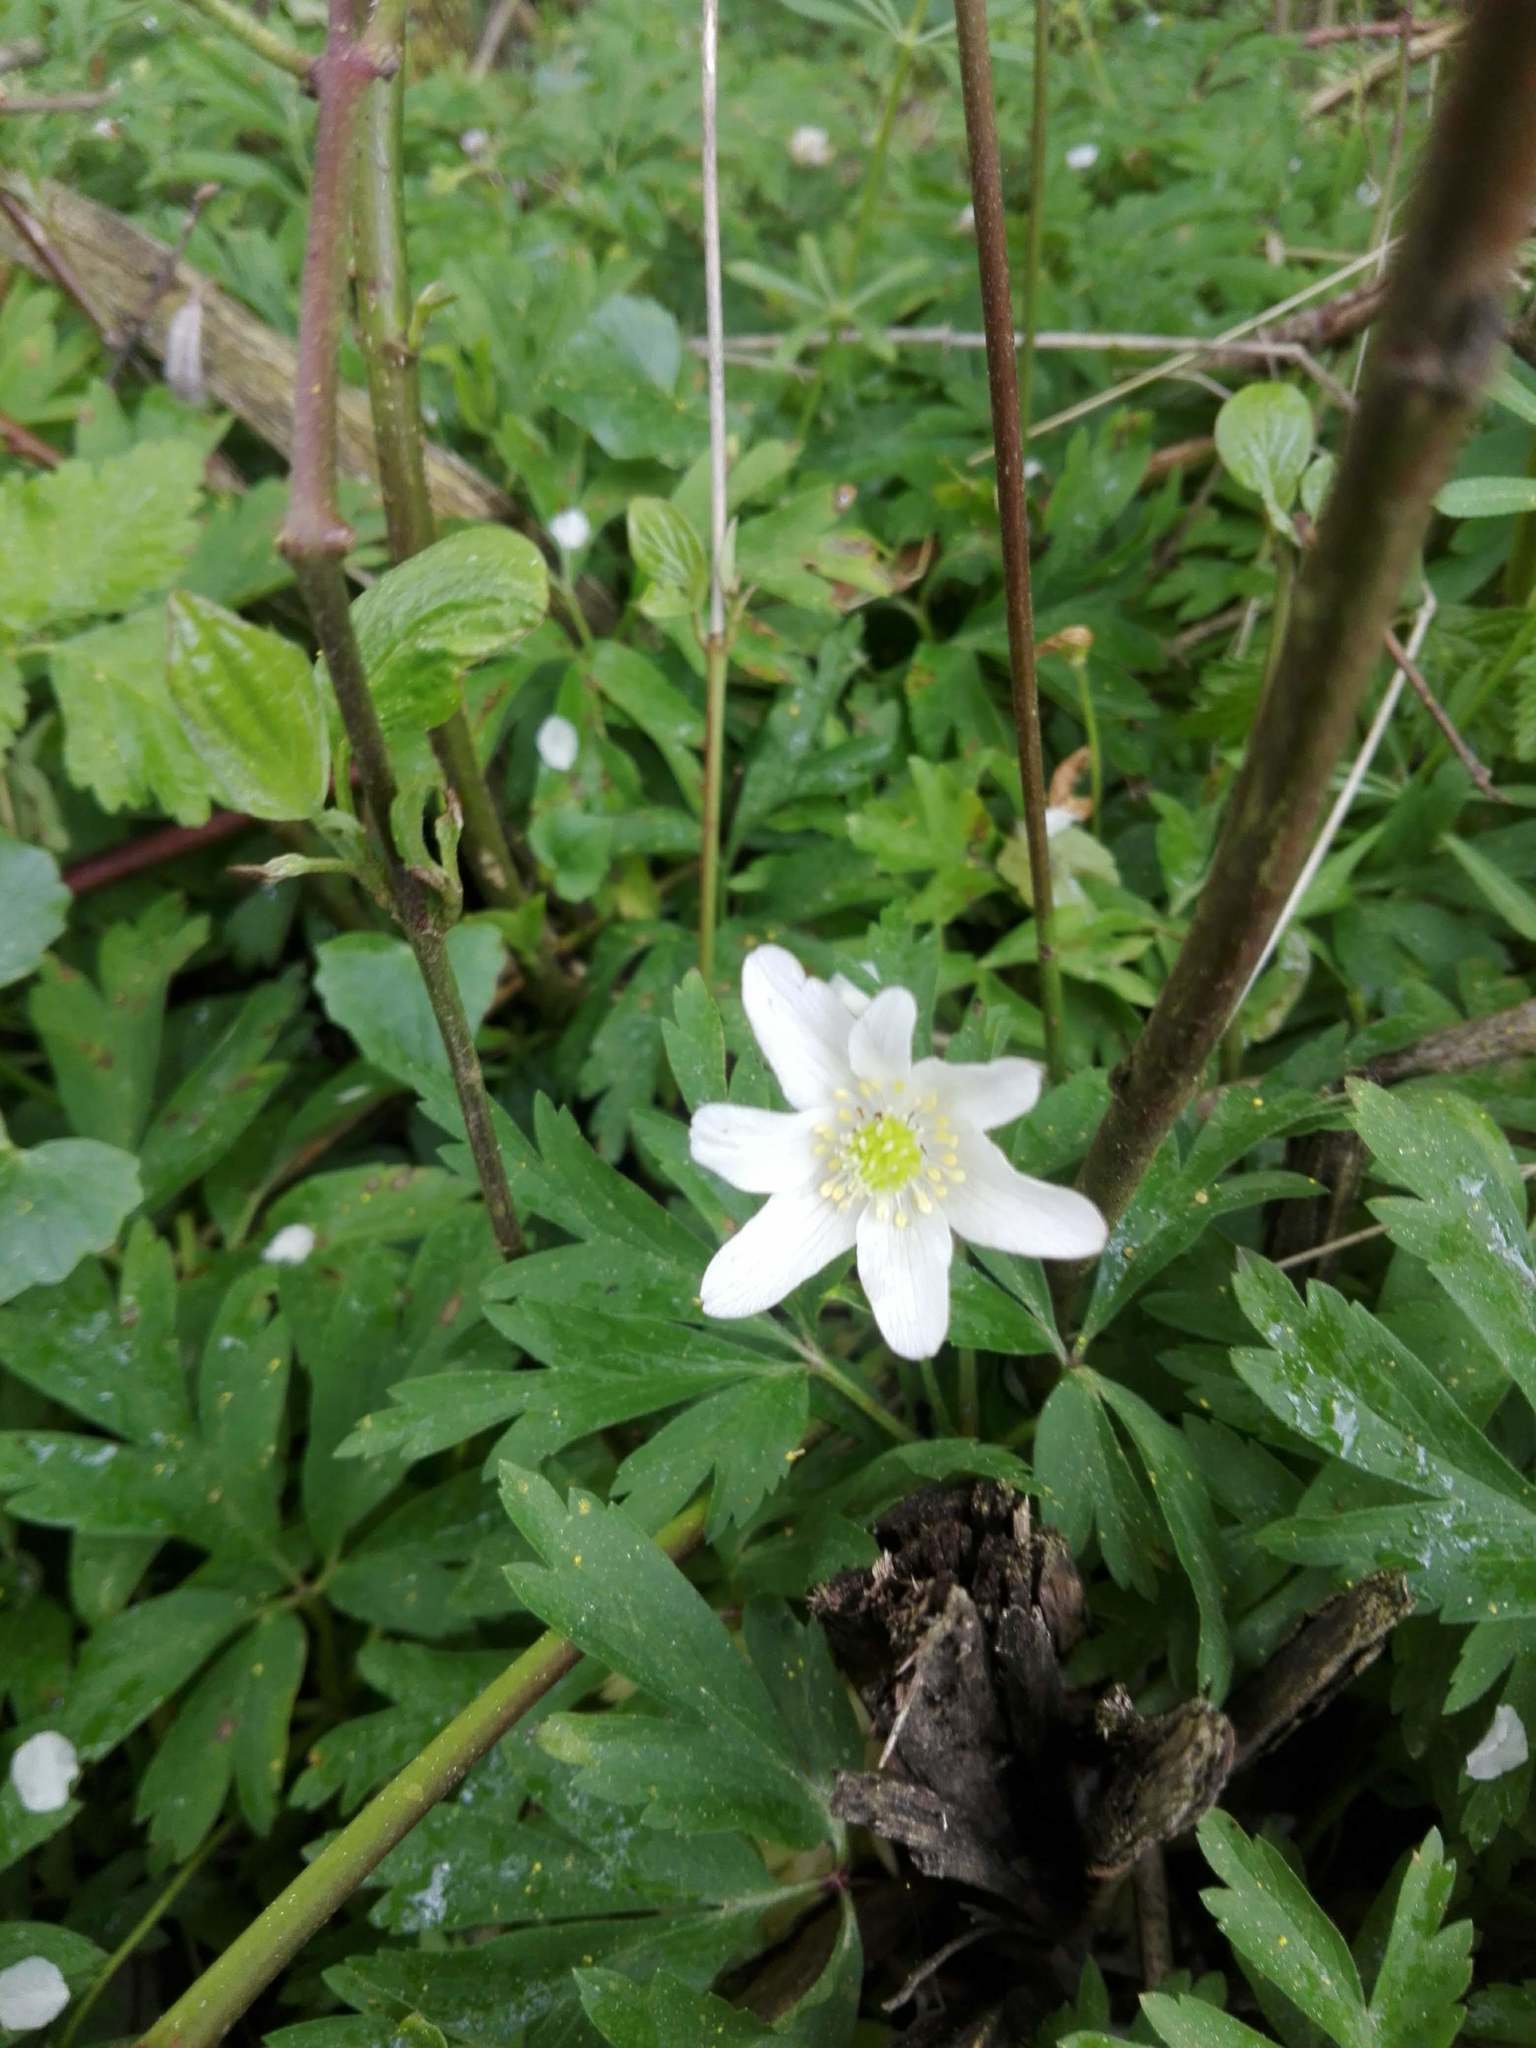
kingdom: Plantae
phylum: Tracheophyta
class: Magnoliopsida
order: Ranunculales
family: Ranunculaceae
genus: Anemone
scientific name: Anemone nemorosa
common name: Wood anemone
